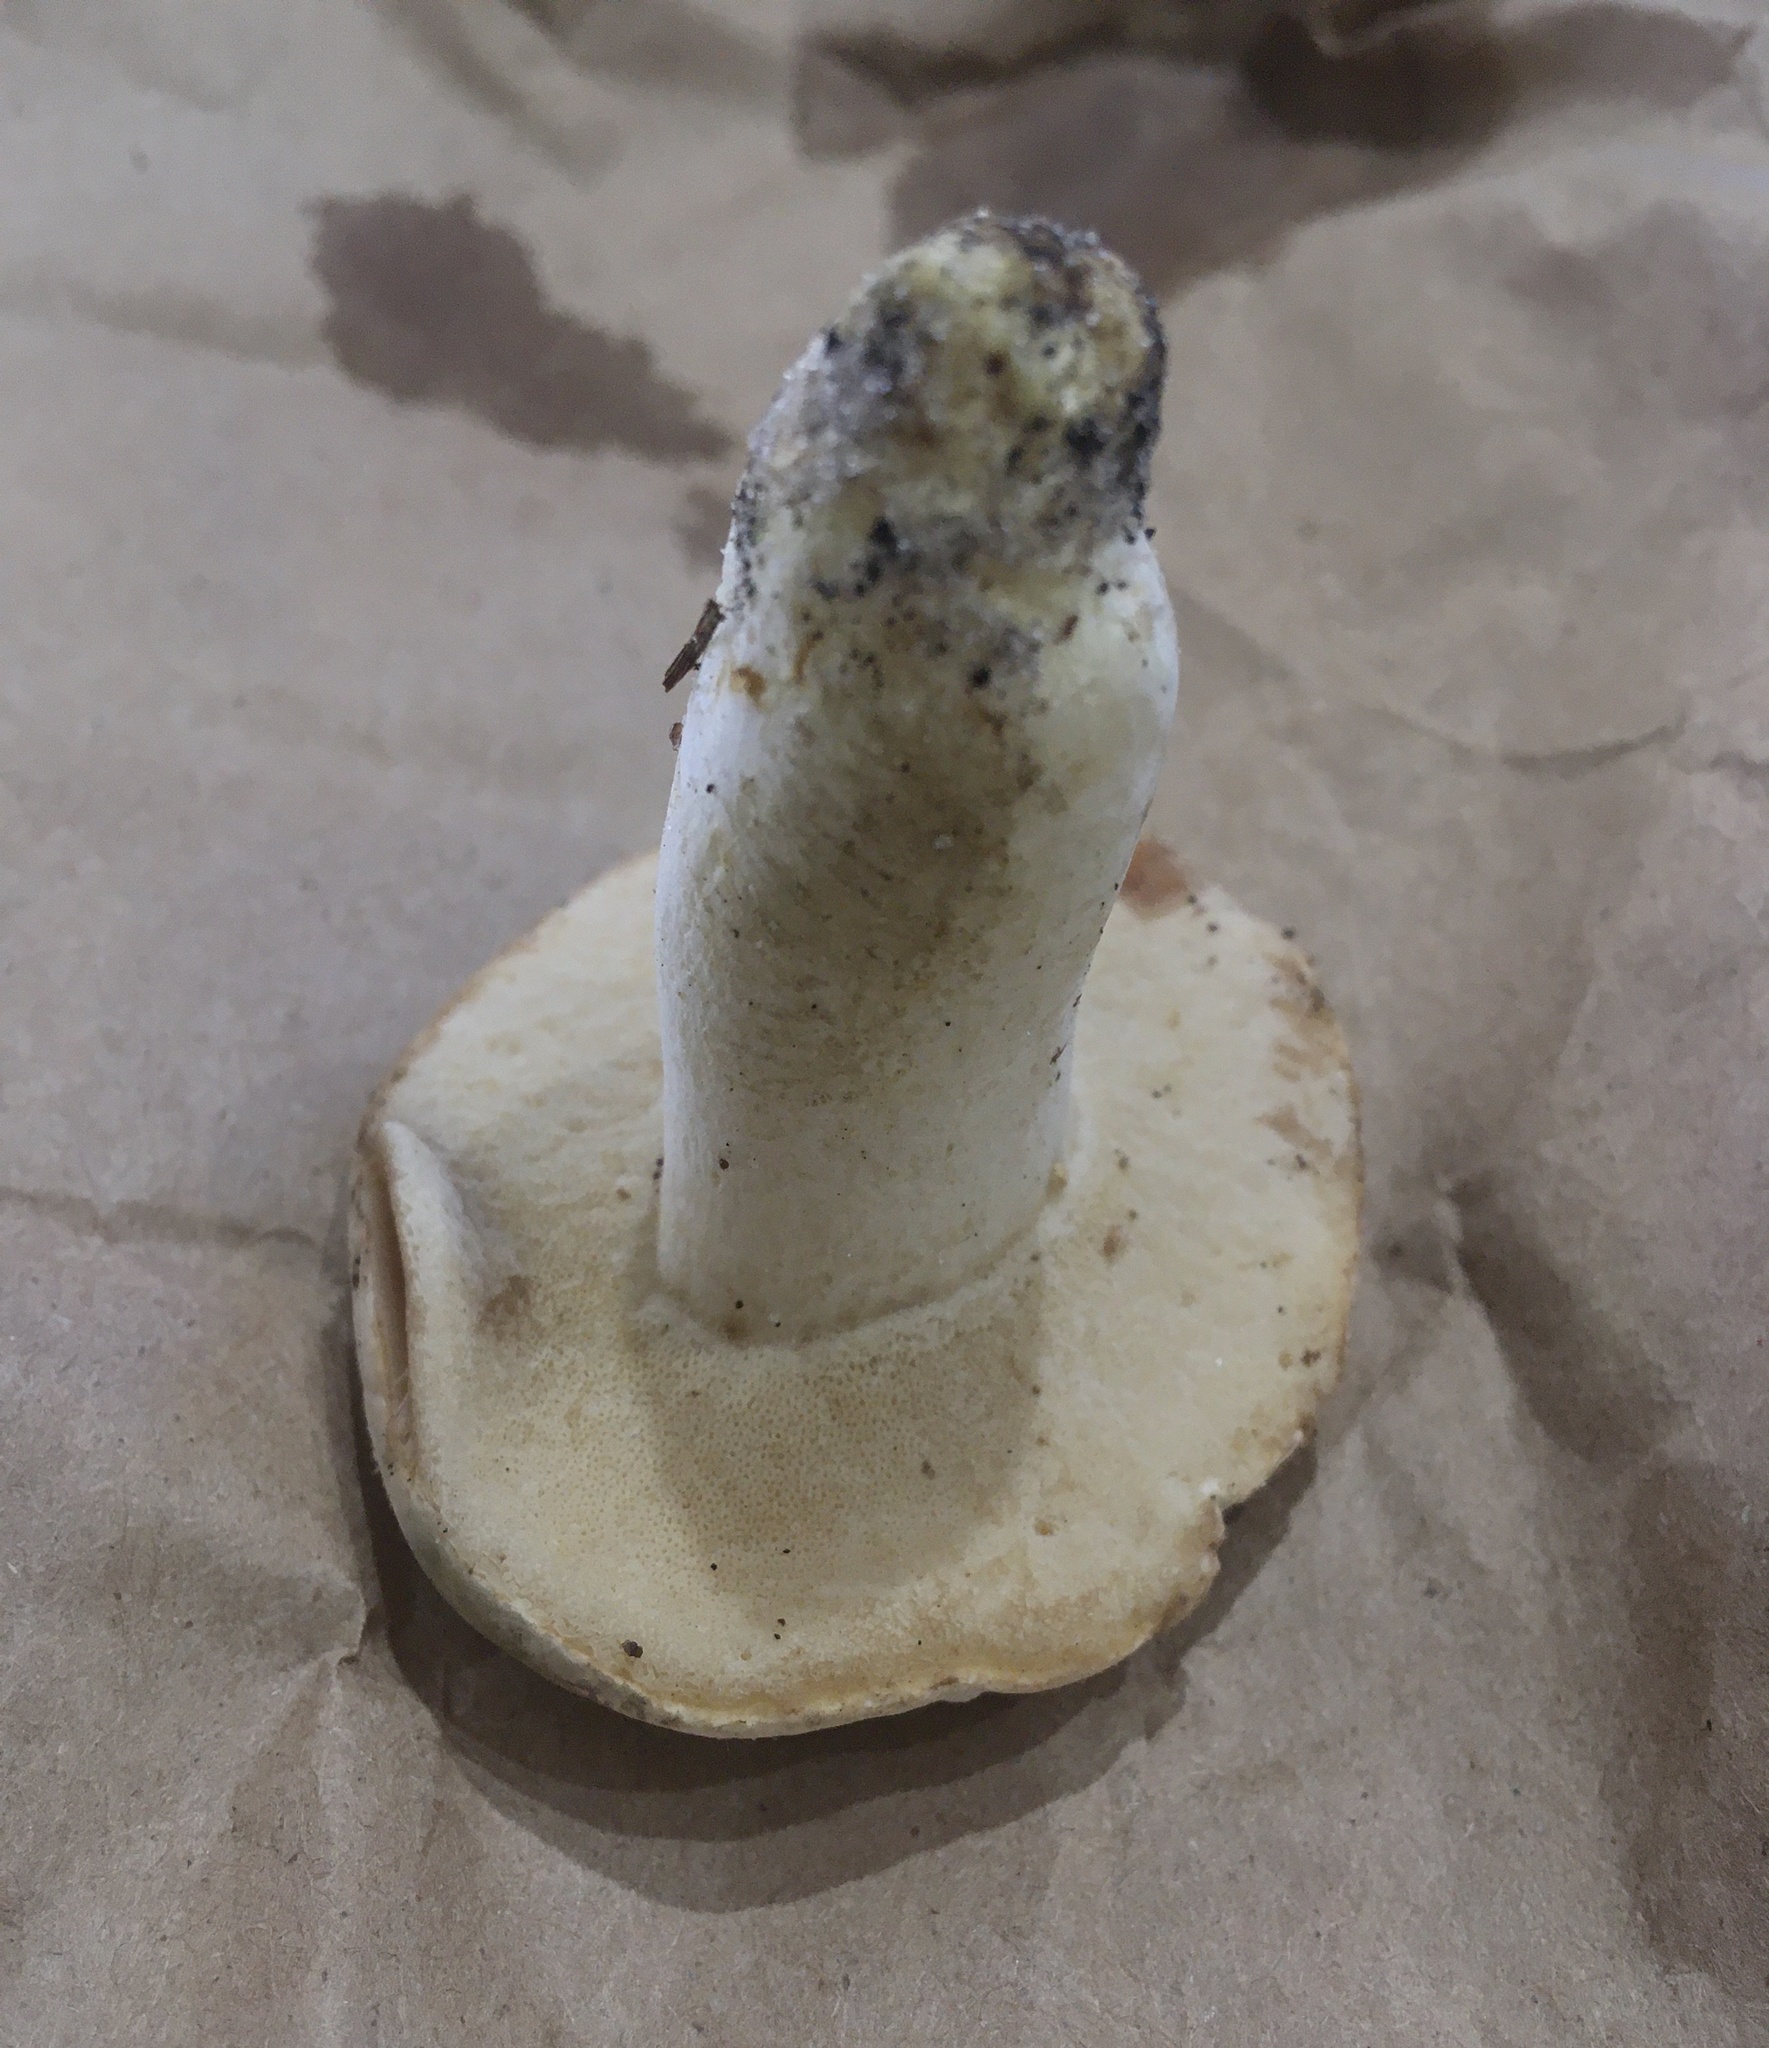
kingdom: Fungi
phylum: Basidiomycota
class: Agaricomycetes
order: Boletales
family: Boletaceae
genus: Boletus
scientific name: Boletus
